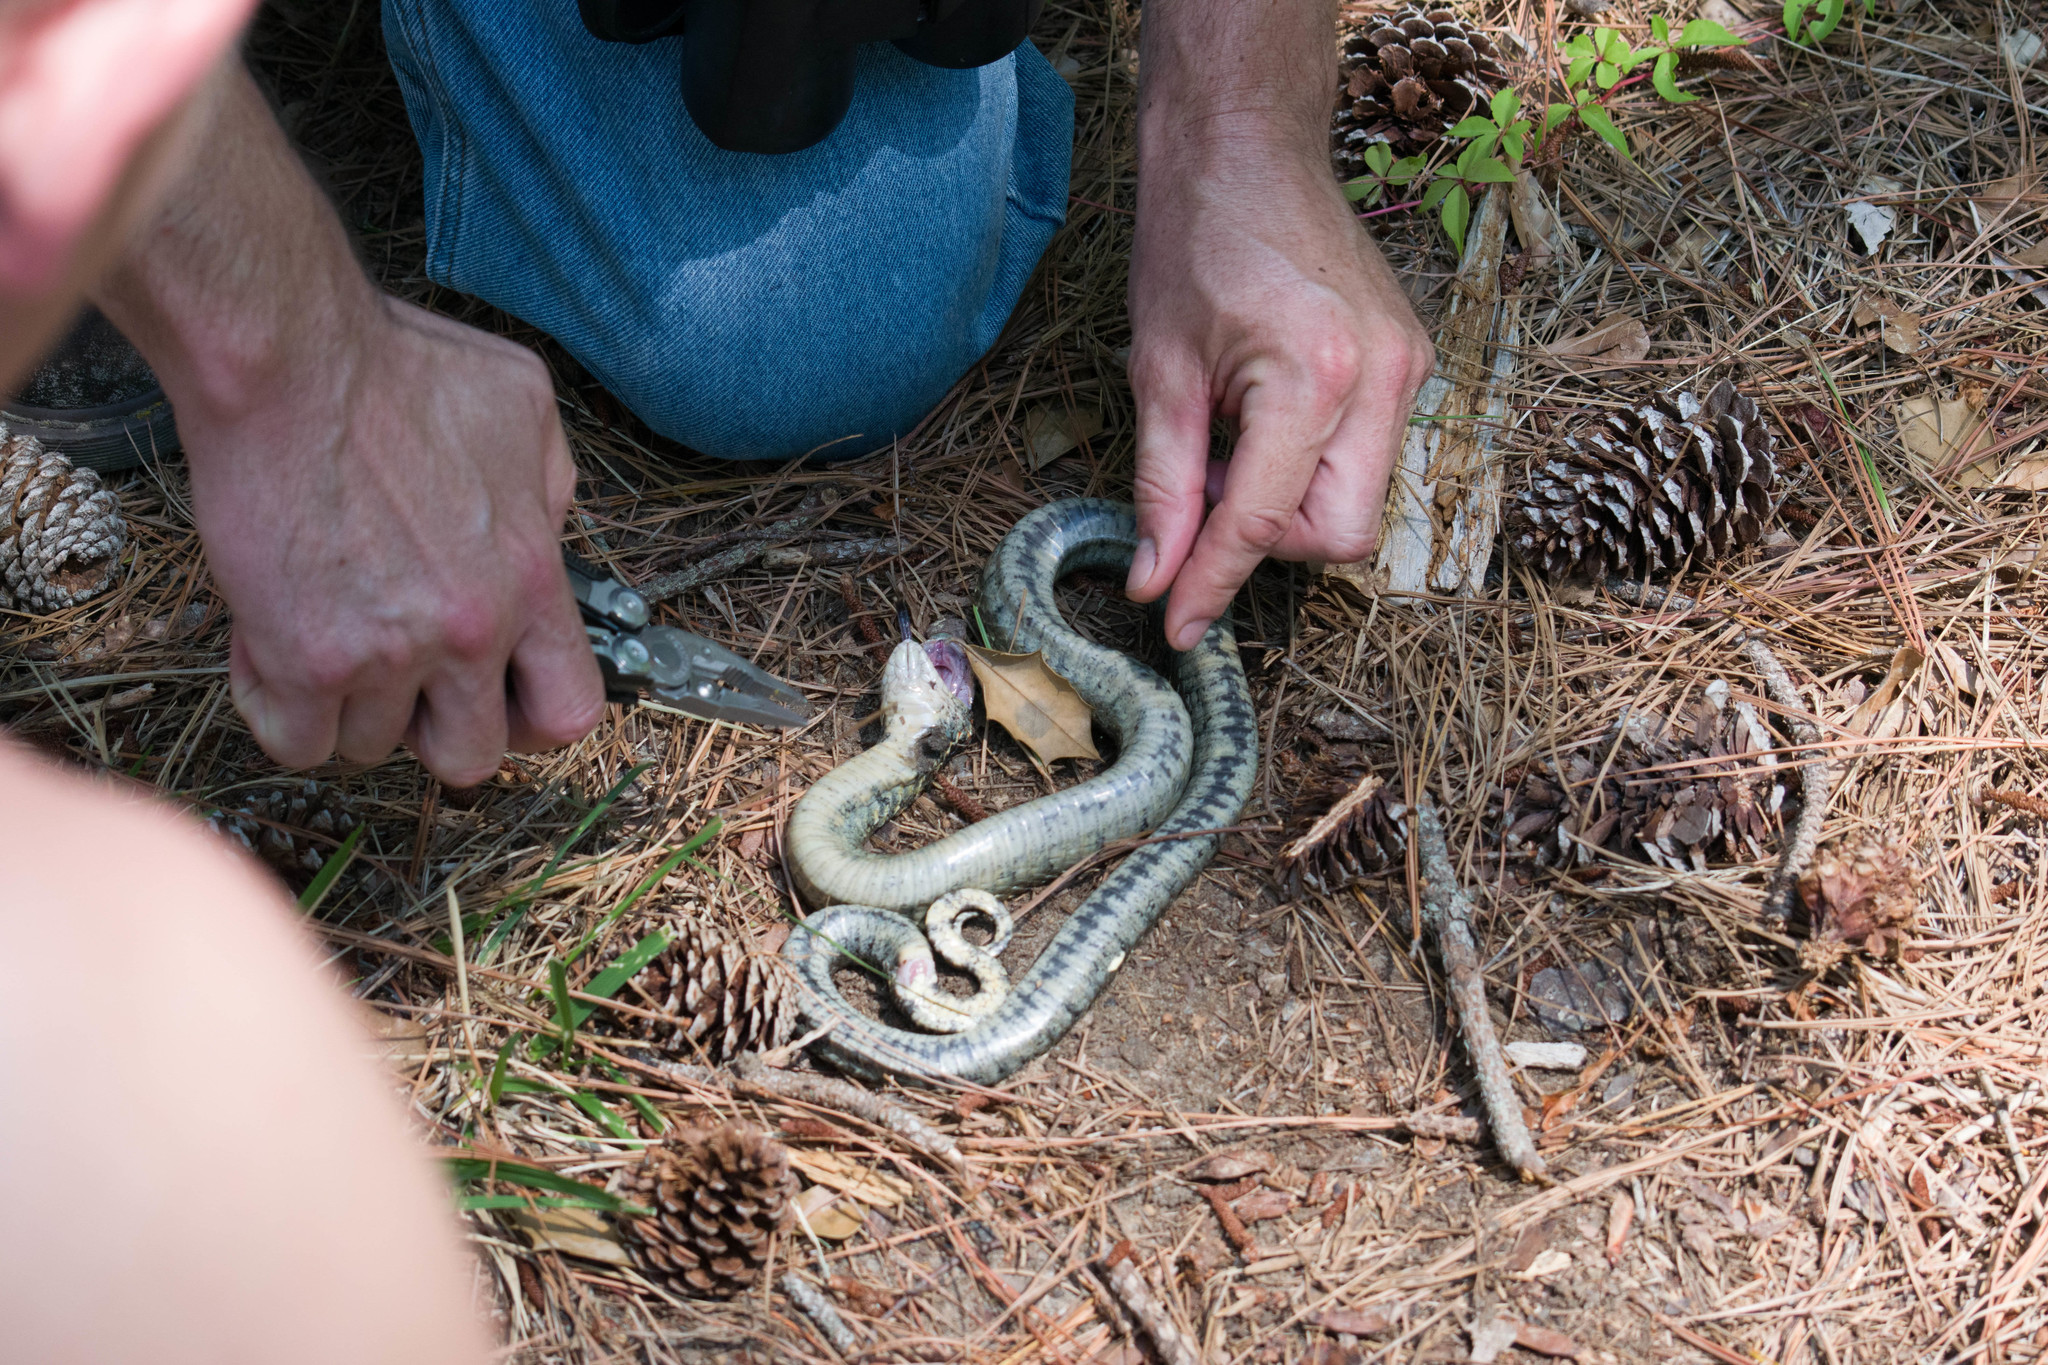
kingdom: Animalia
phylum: Chordata
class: Squamata
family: Colubridae
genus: Heterodon
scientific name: Heterodon platirhinos
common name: Eastern hognose snake
